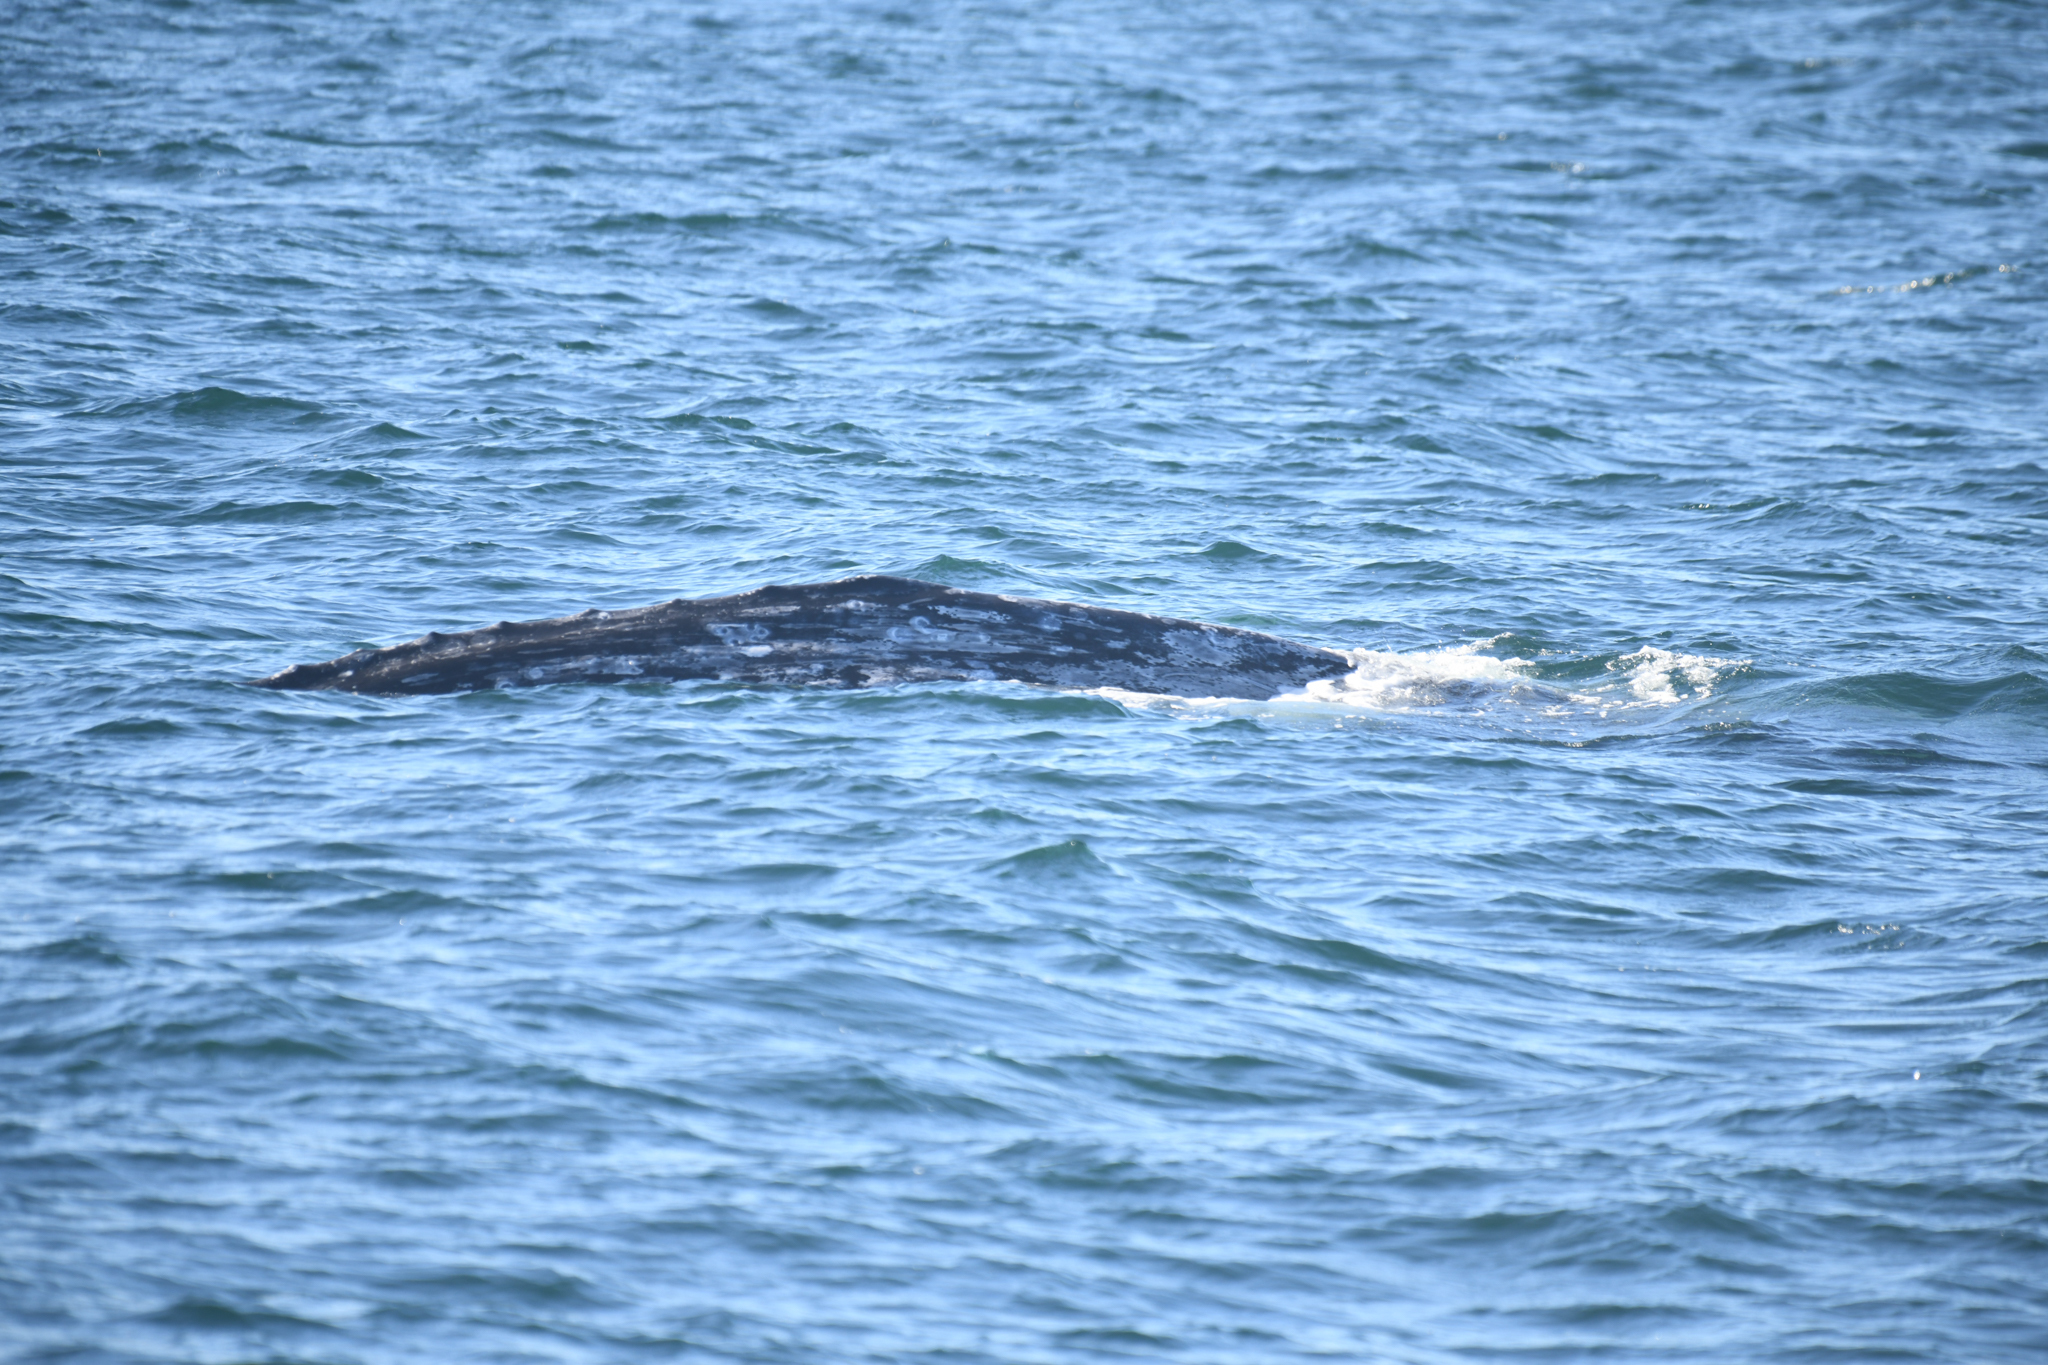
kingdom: Animalia
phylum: Chordata
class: Mammalia
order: Cetacea
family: Eschrichtiidae
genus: Eschrichtius
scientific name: Eschrichtius robustus
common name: Gray whale
